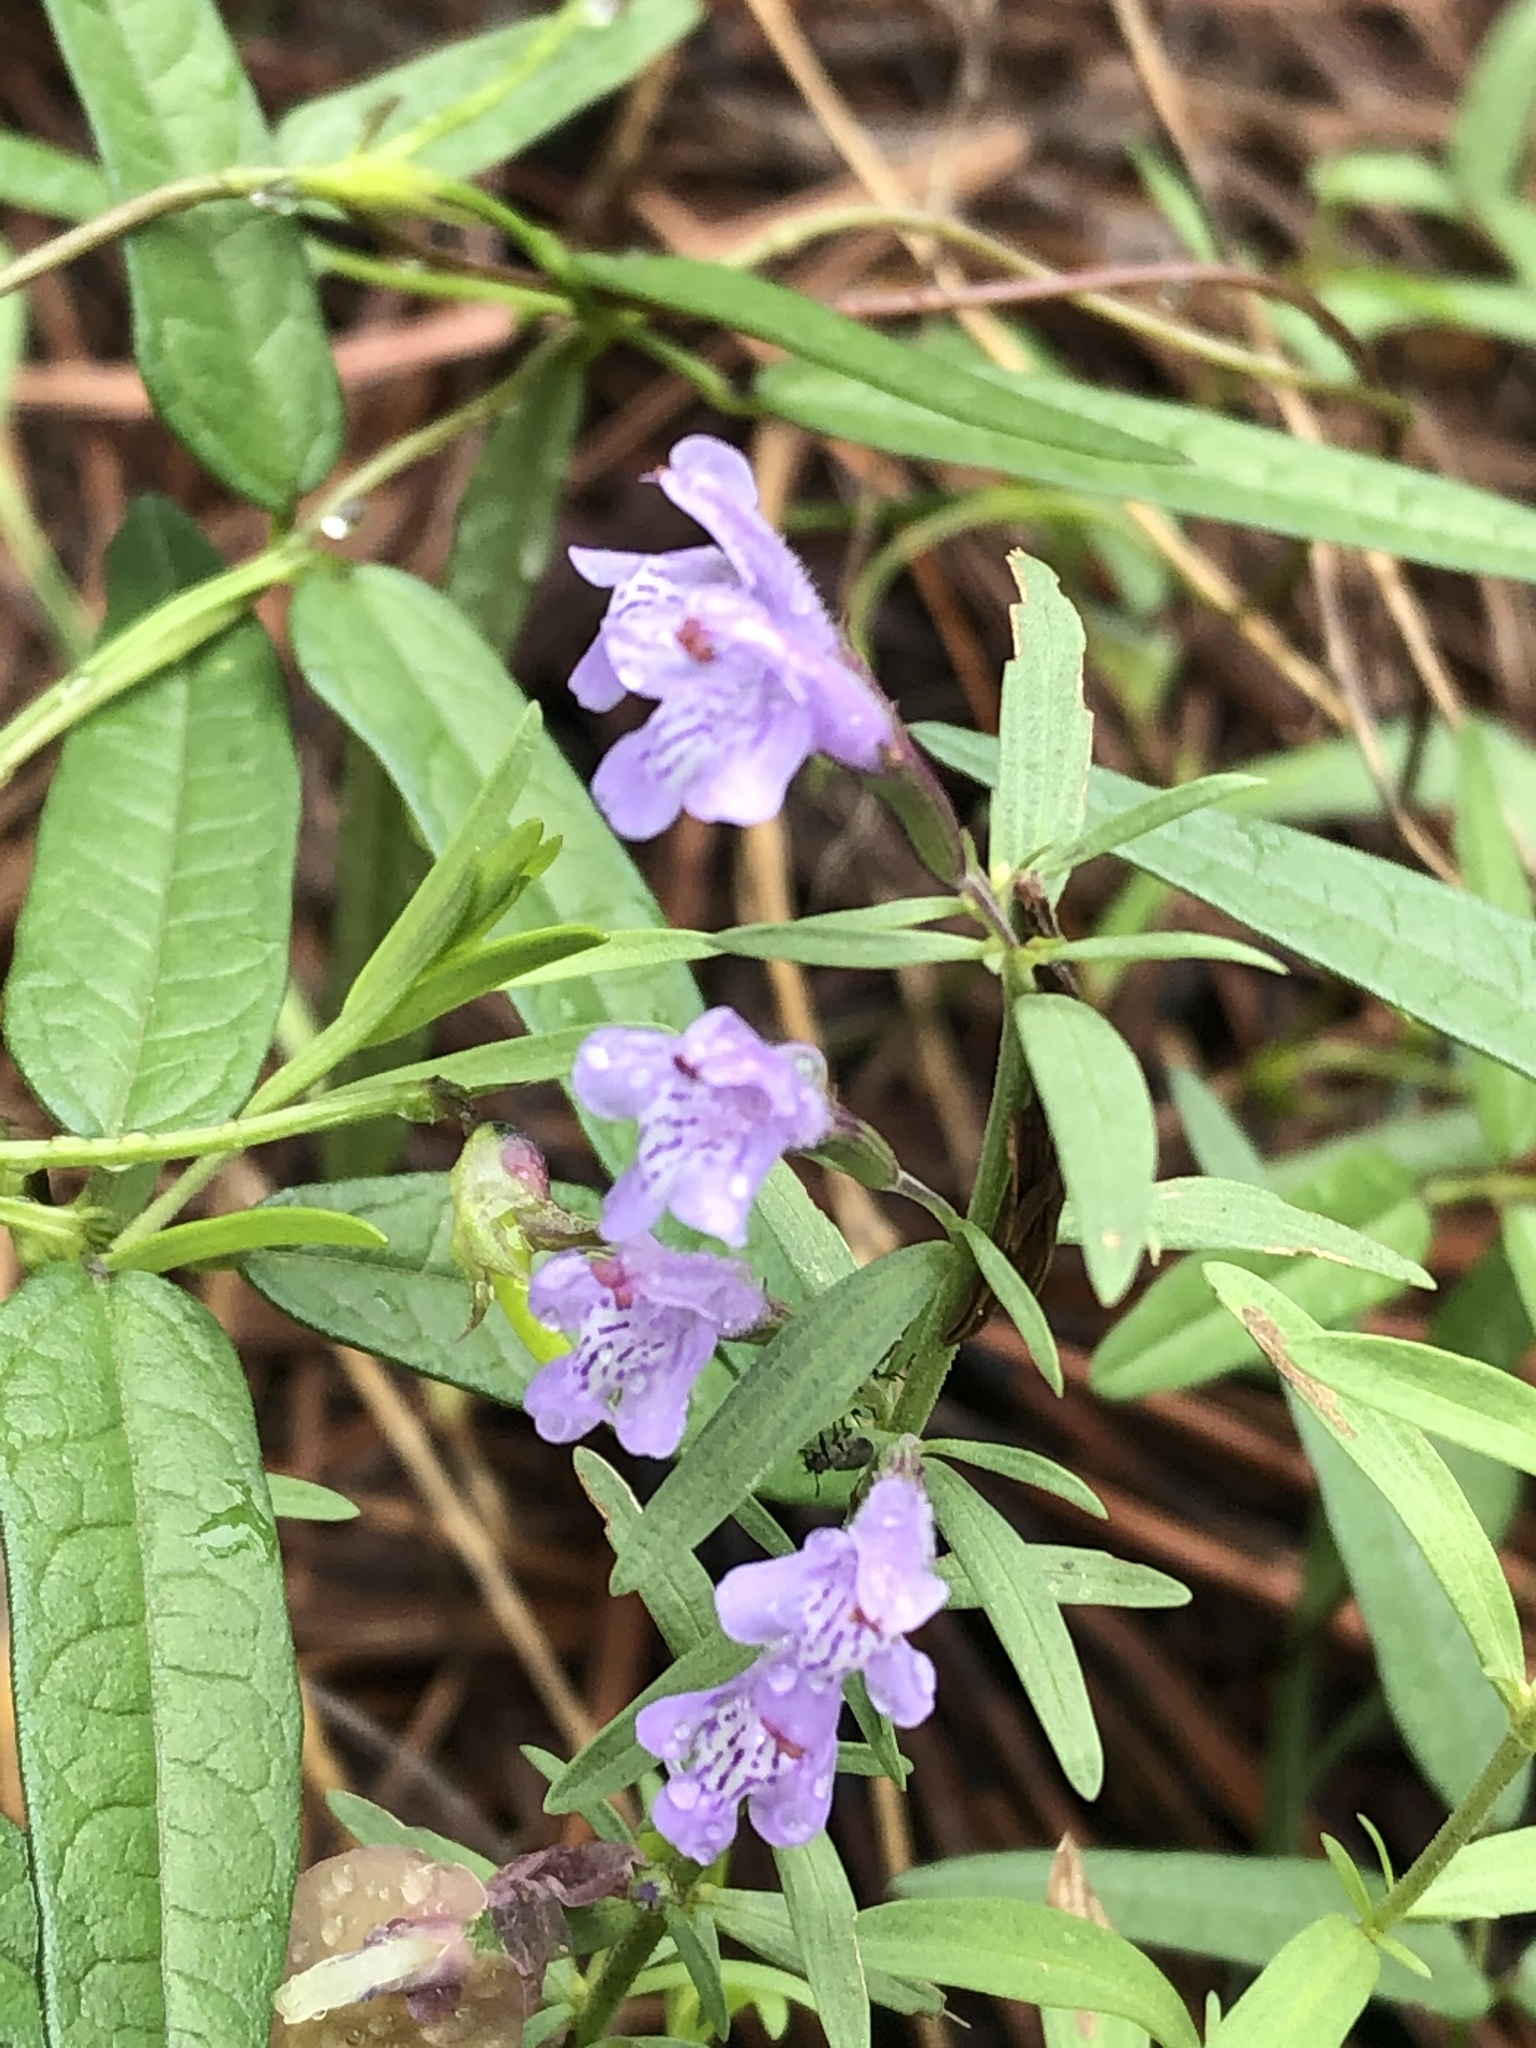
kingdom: Plantae
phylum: Tracheophyta
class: Magnoliopsida
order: Lamiales
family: Lamiaceae
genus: Hedeoma
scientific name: Hedeoma hyssopifolia
